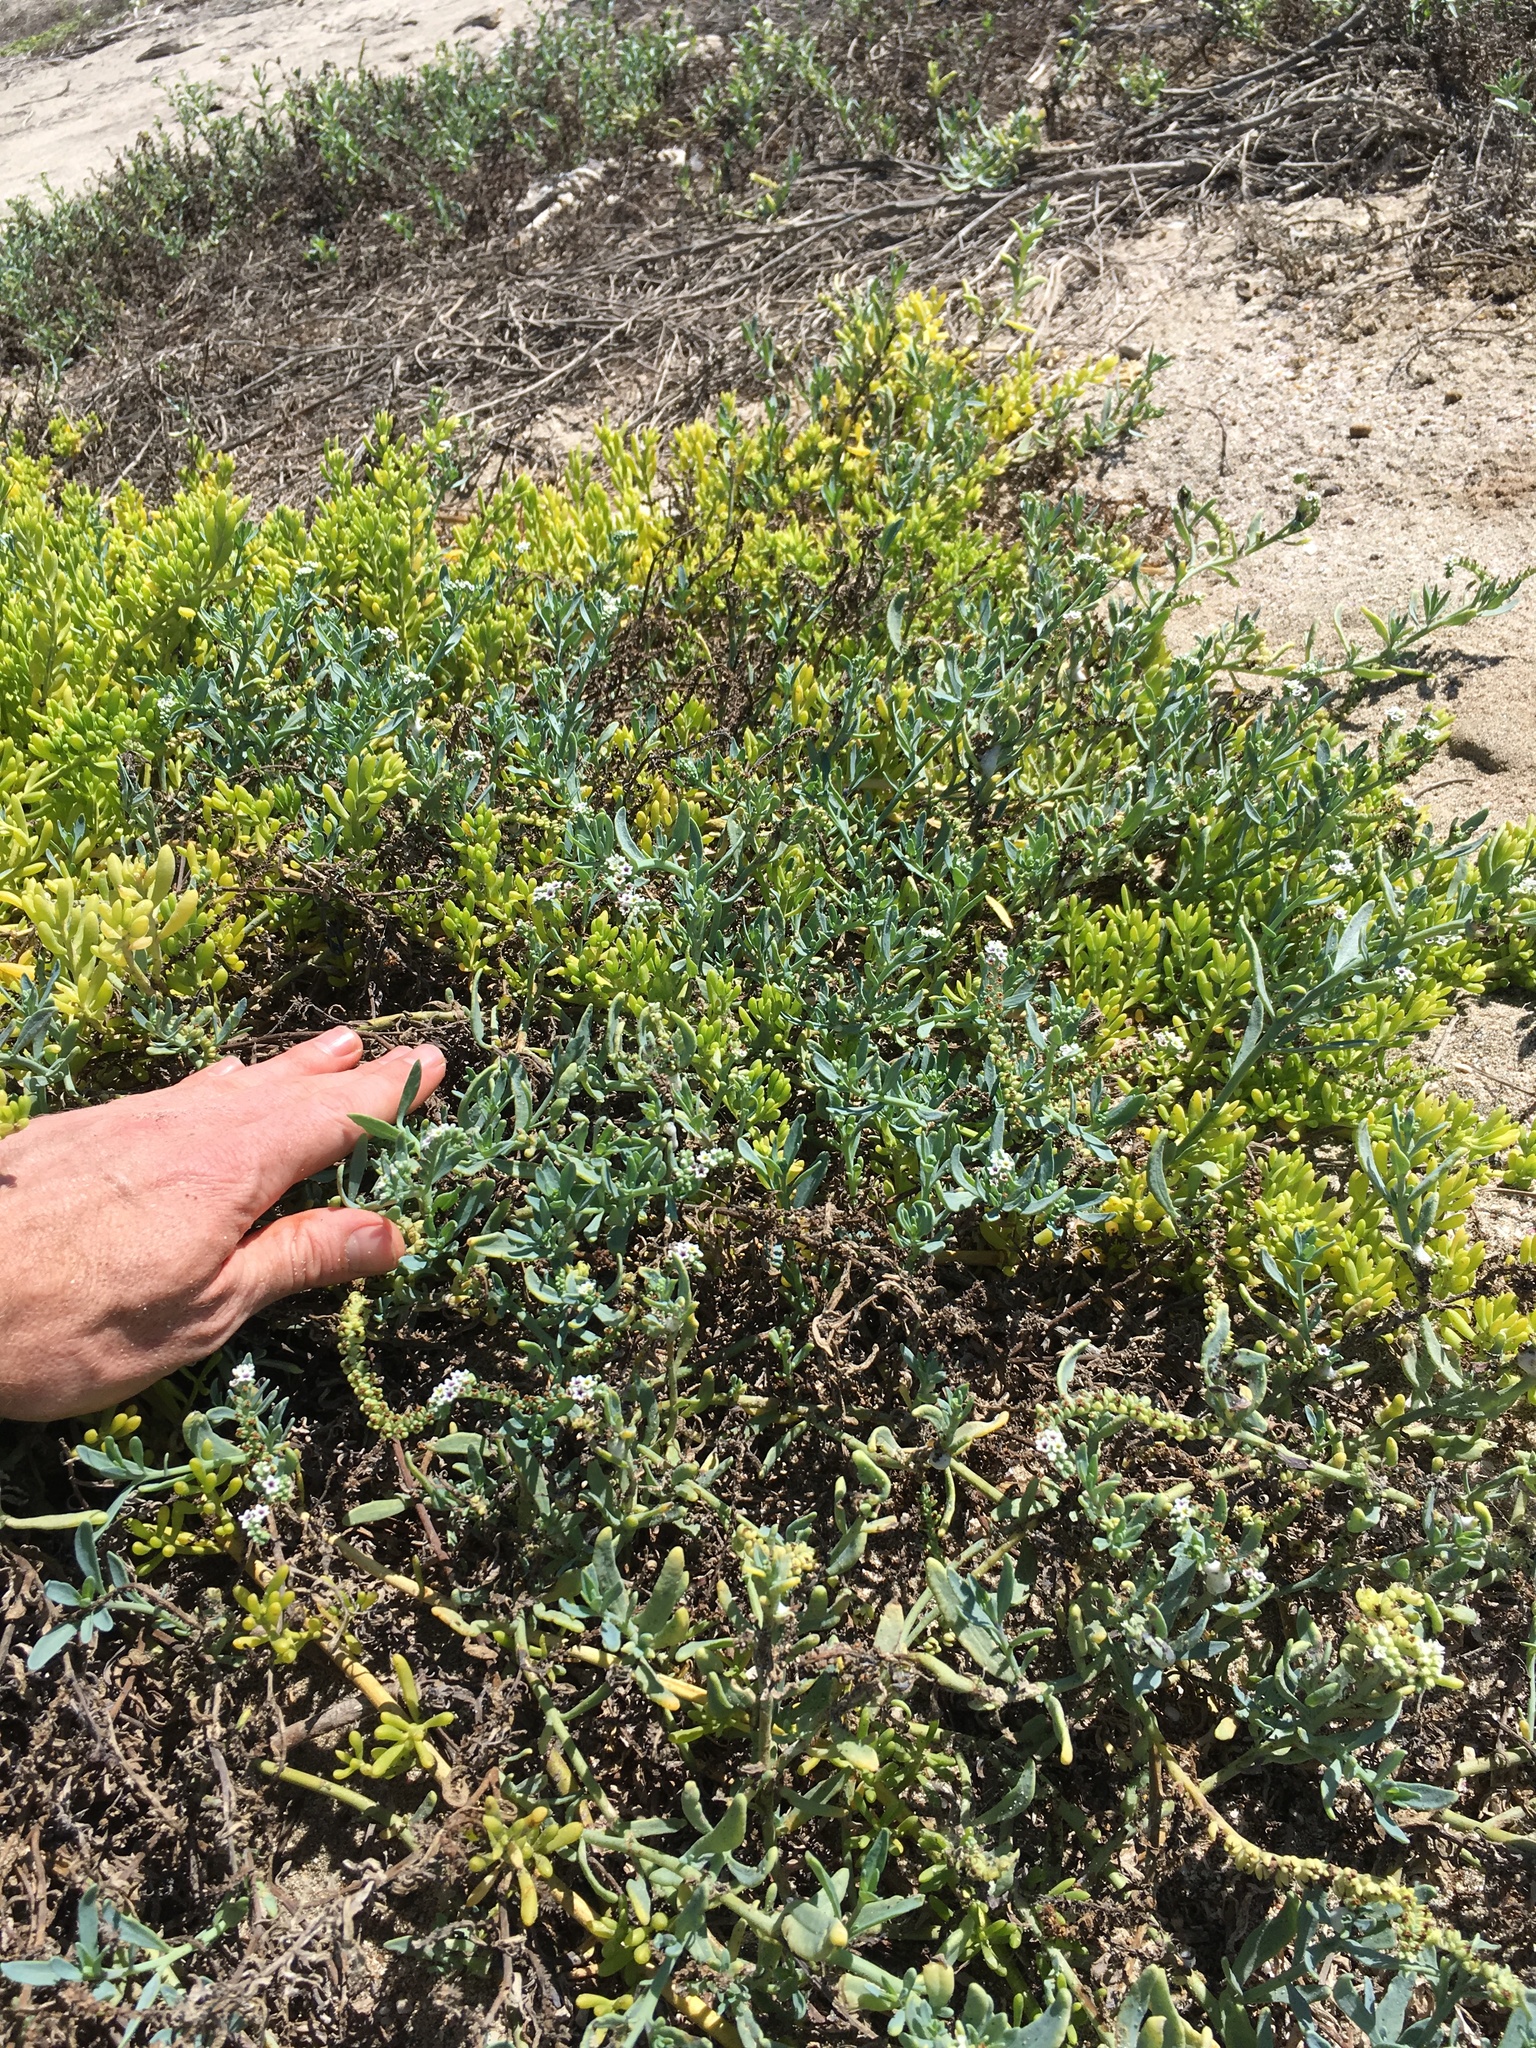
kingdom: Plantae
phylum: Tracheophyta
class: Magnoliopsida
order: Boraginales
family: Heliotropiaceae
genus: Heliotropium
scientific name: Heliotropium curassavicum
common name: Seaside heliotrope
